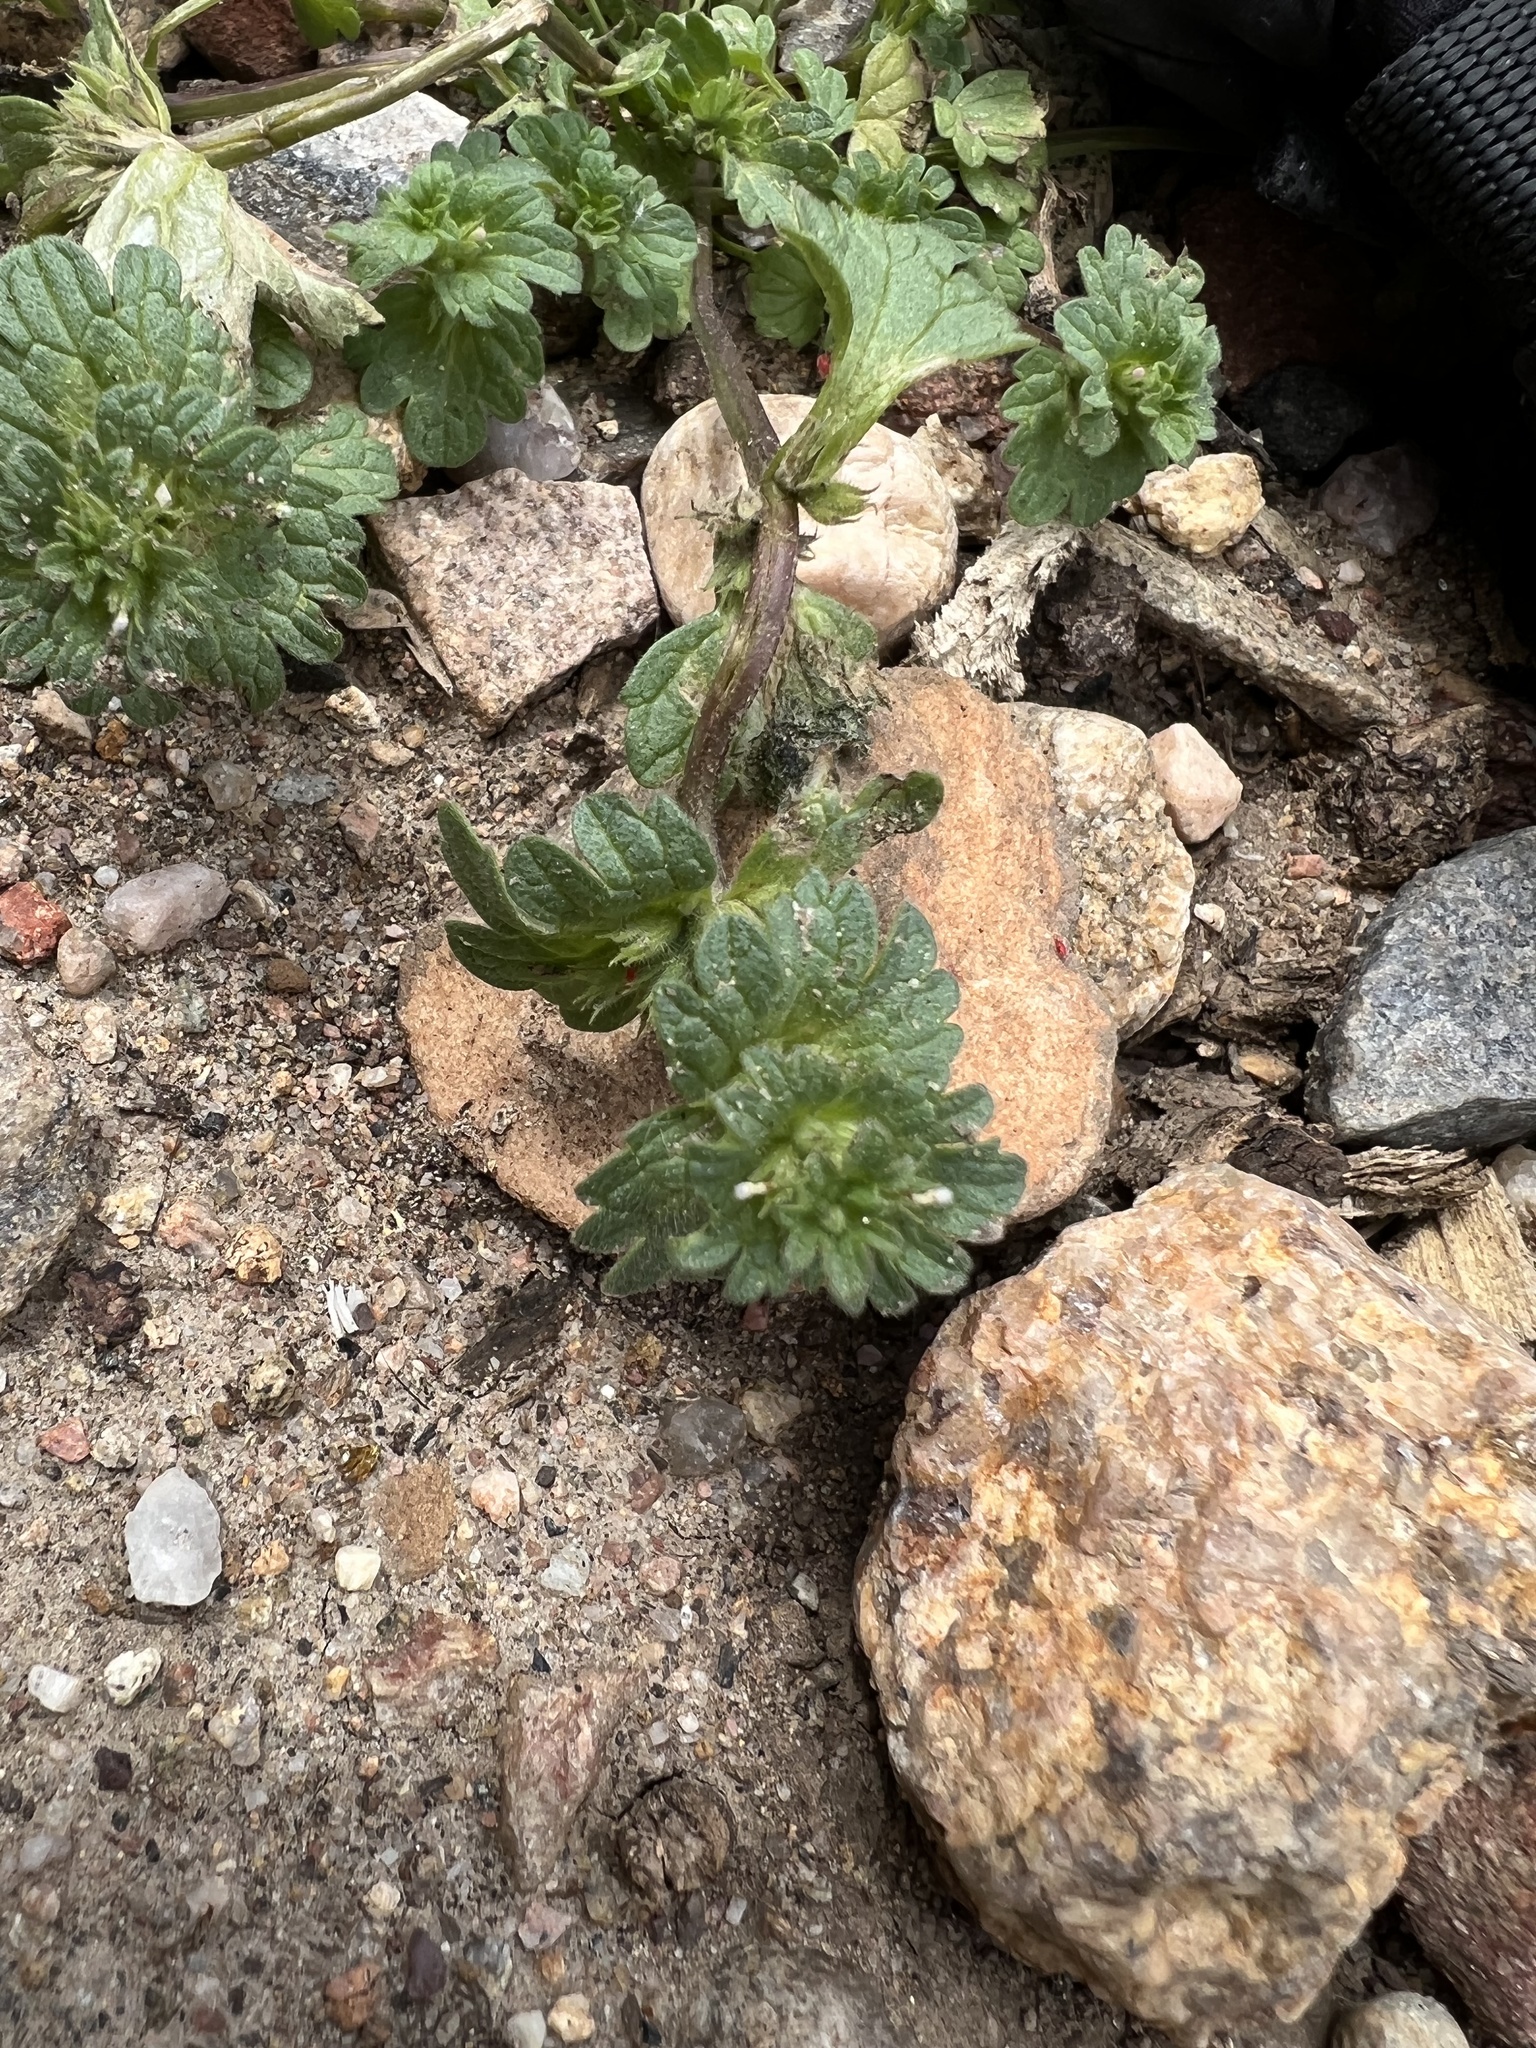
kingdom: Plantae
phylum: Tracheophyta
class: Magnoliopsida
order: Lamiales
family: Lamiaceae
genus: Lamium
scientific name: Lamium amplexicaule
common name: Henbit dead-nettle
